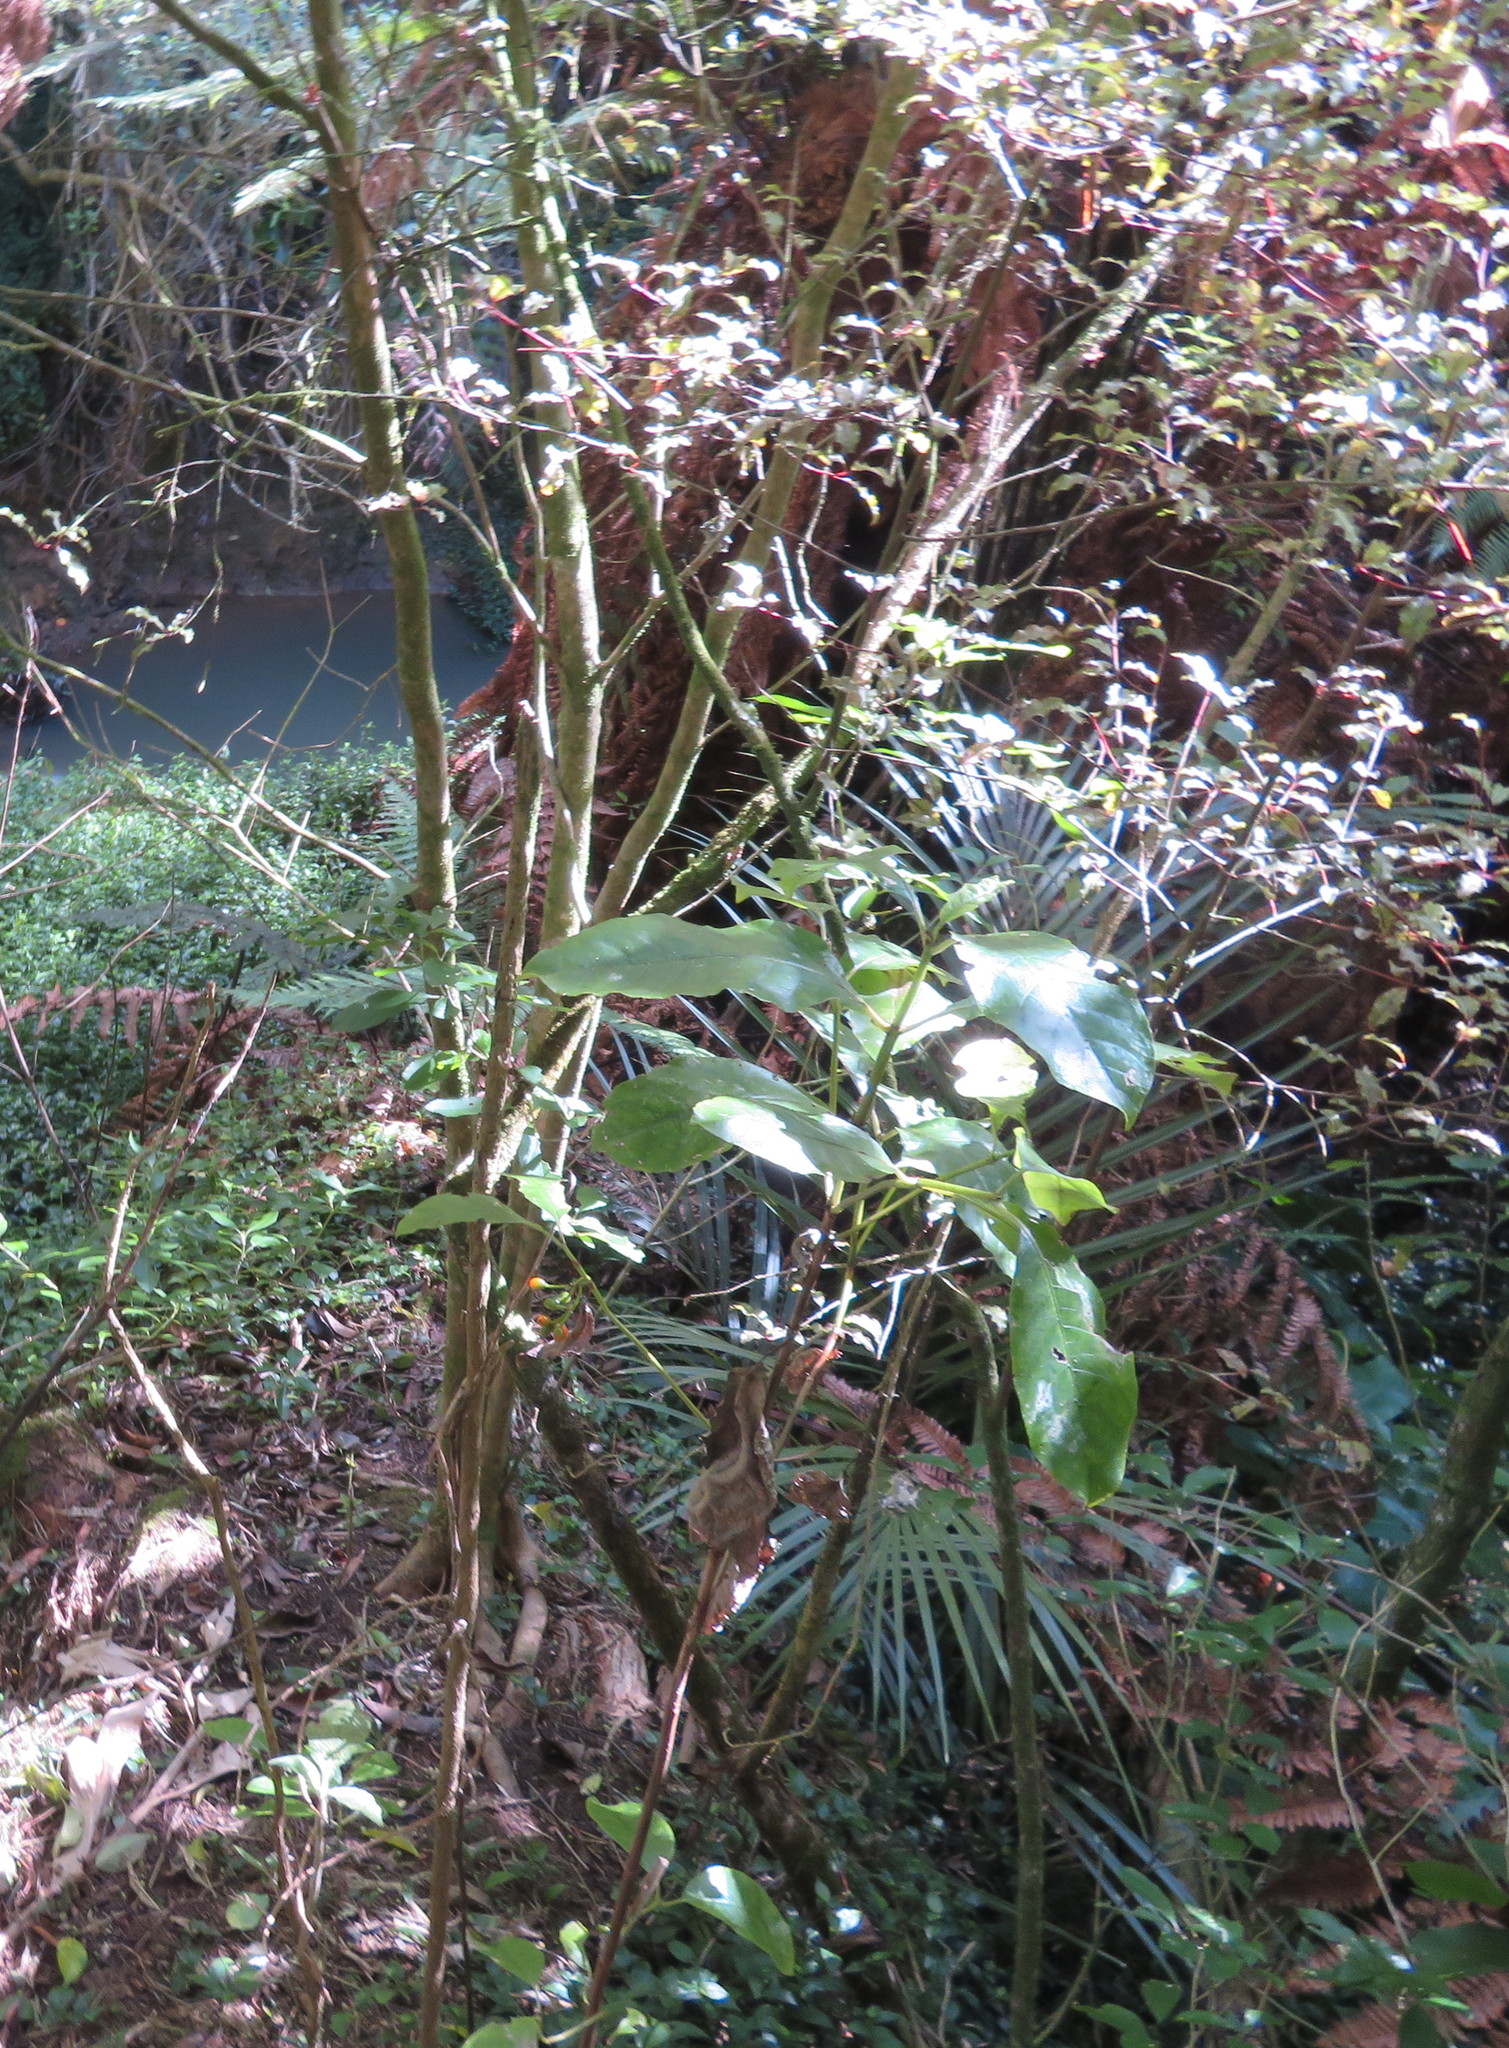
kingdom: Plantae
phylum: Tracheophyta
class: Magnoliopsida
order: Gentianales
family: Rubiaceae
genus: Coprosma
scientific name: Coprosma autumnalis
